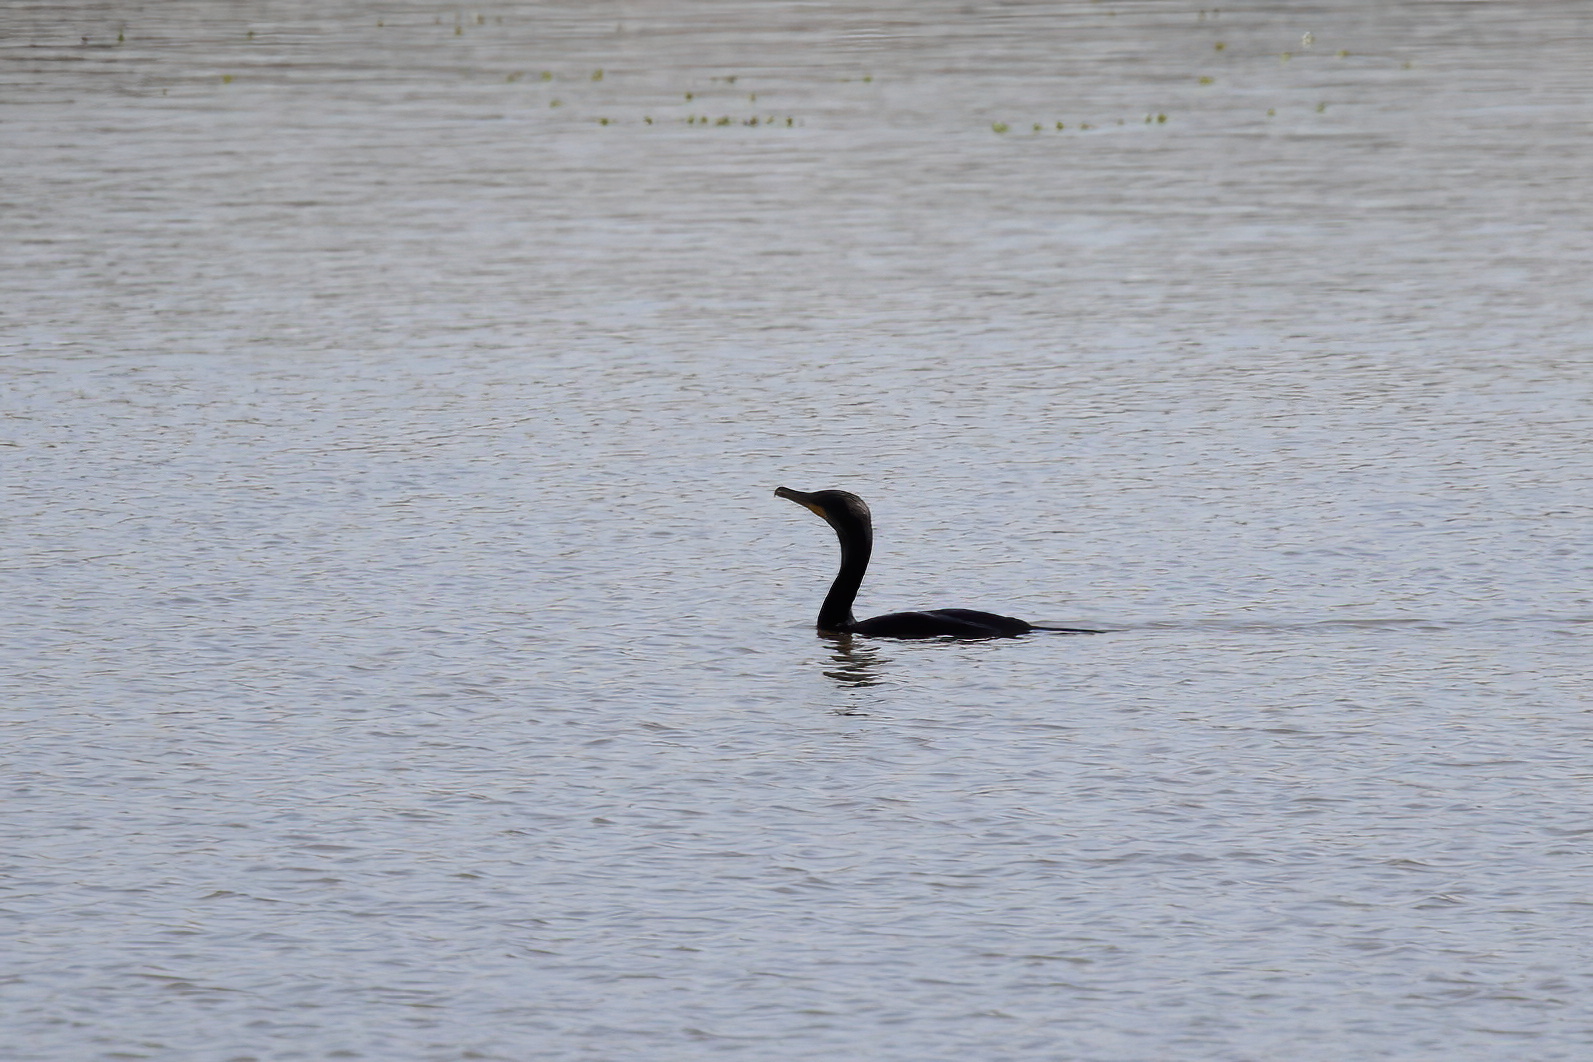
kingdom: Animalia
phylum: Chordata
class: Aves
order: Suliformes
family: Phalacrocoracidae
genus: Phalacrocorax
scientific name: Phalacrocorax auritus
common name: Double-crested cormorant
